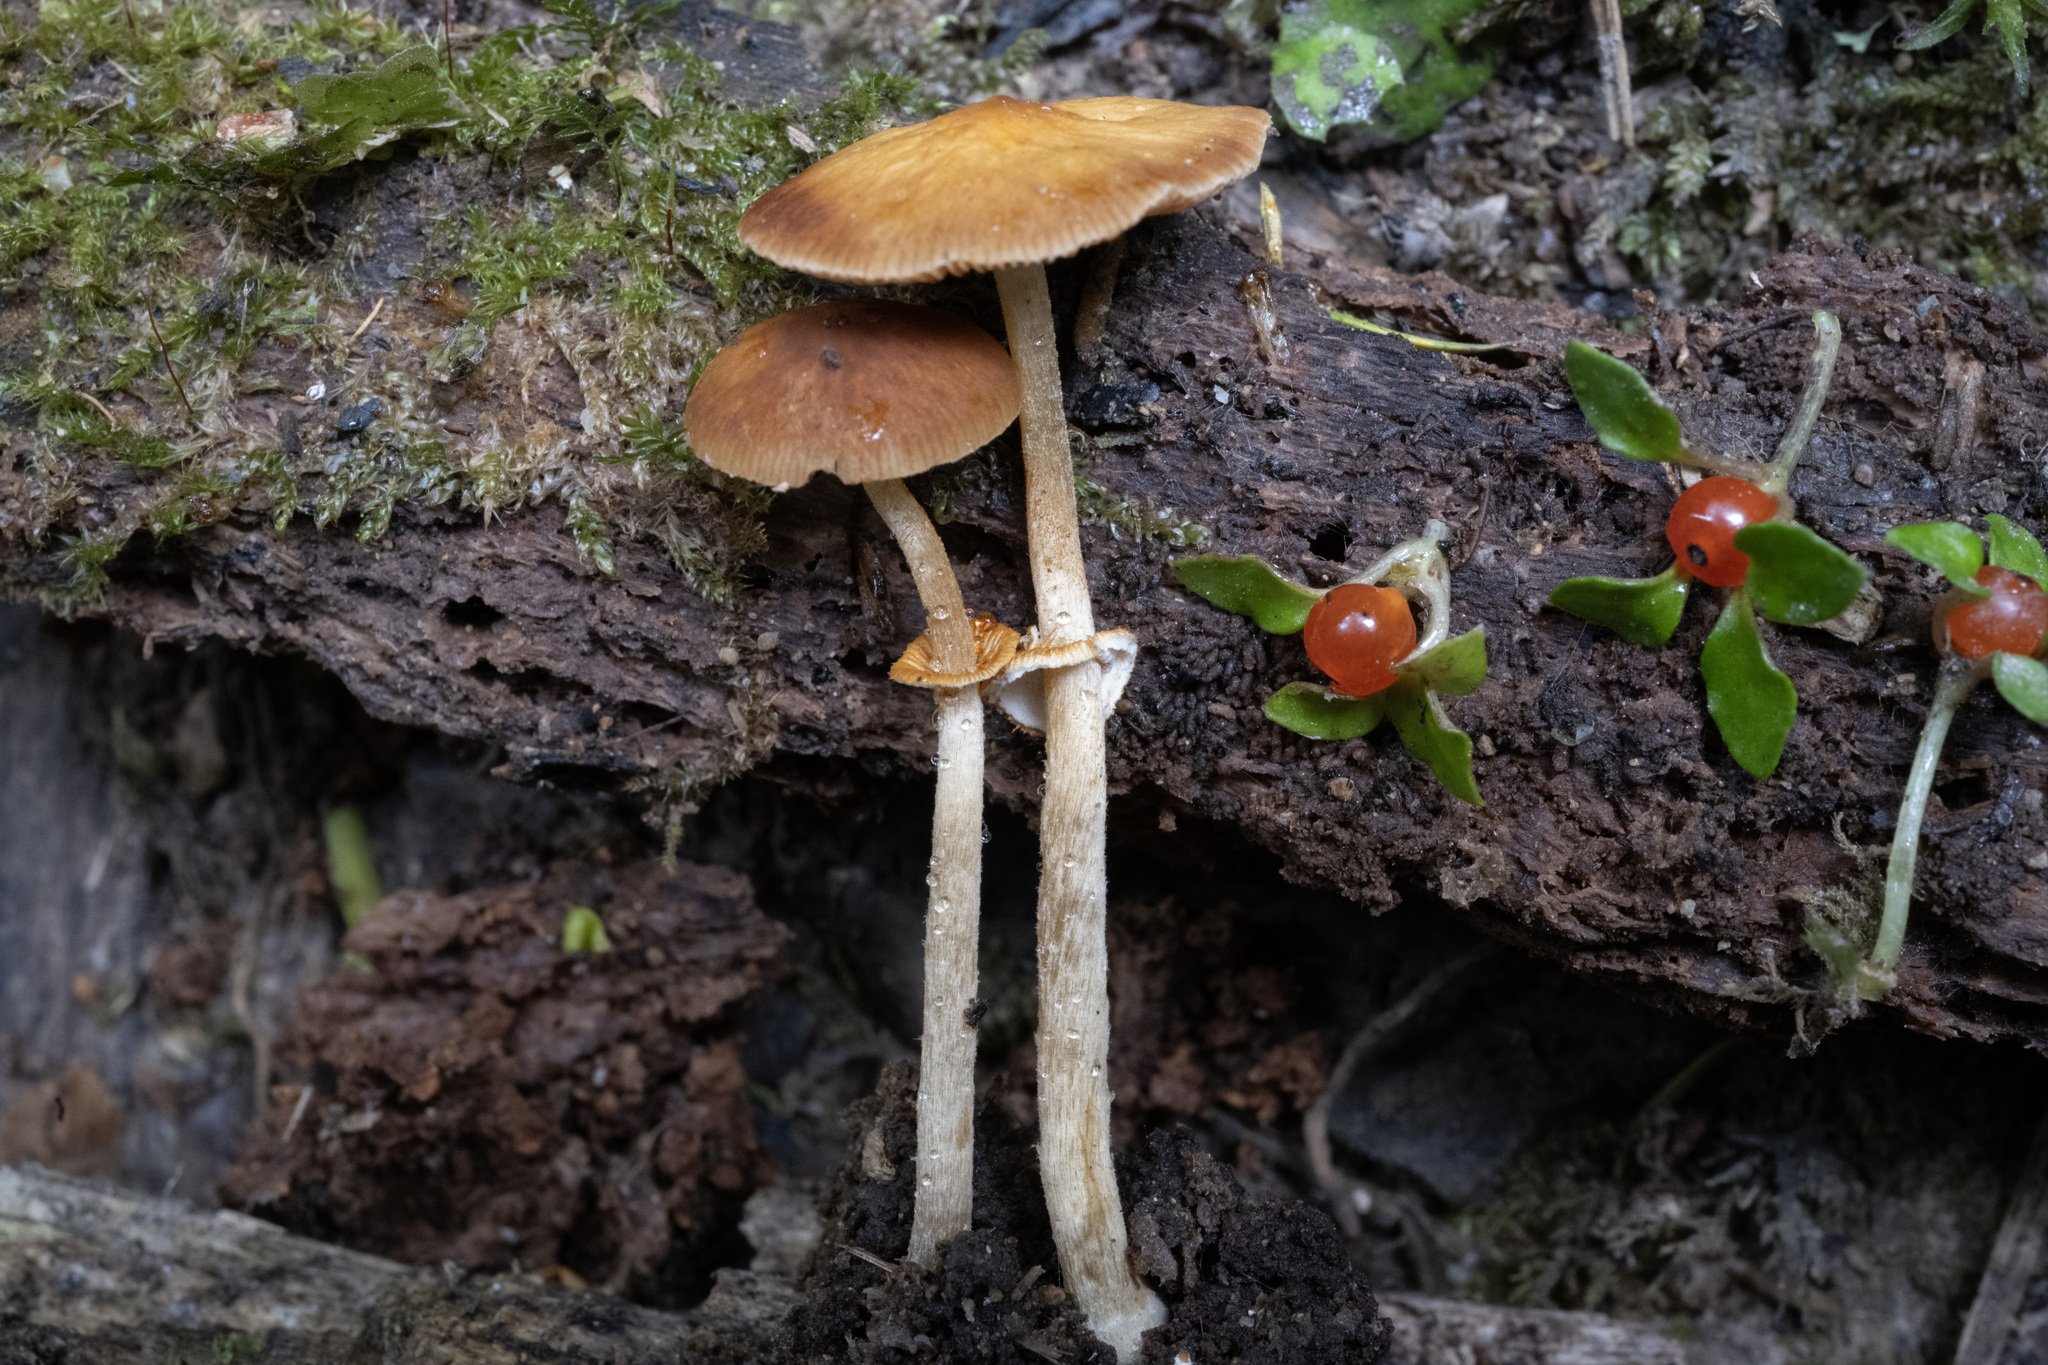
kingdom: Fungi
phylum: Basidiomycota
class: Agaricomycetes
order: Agaricales
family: Bolbitiaceae
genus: Pholiotina
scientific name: Pholiotina gracilenta
